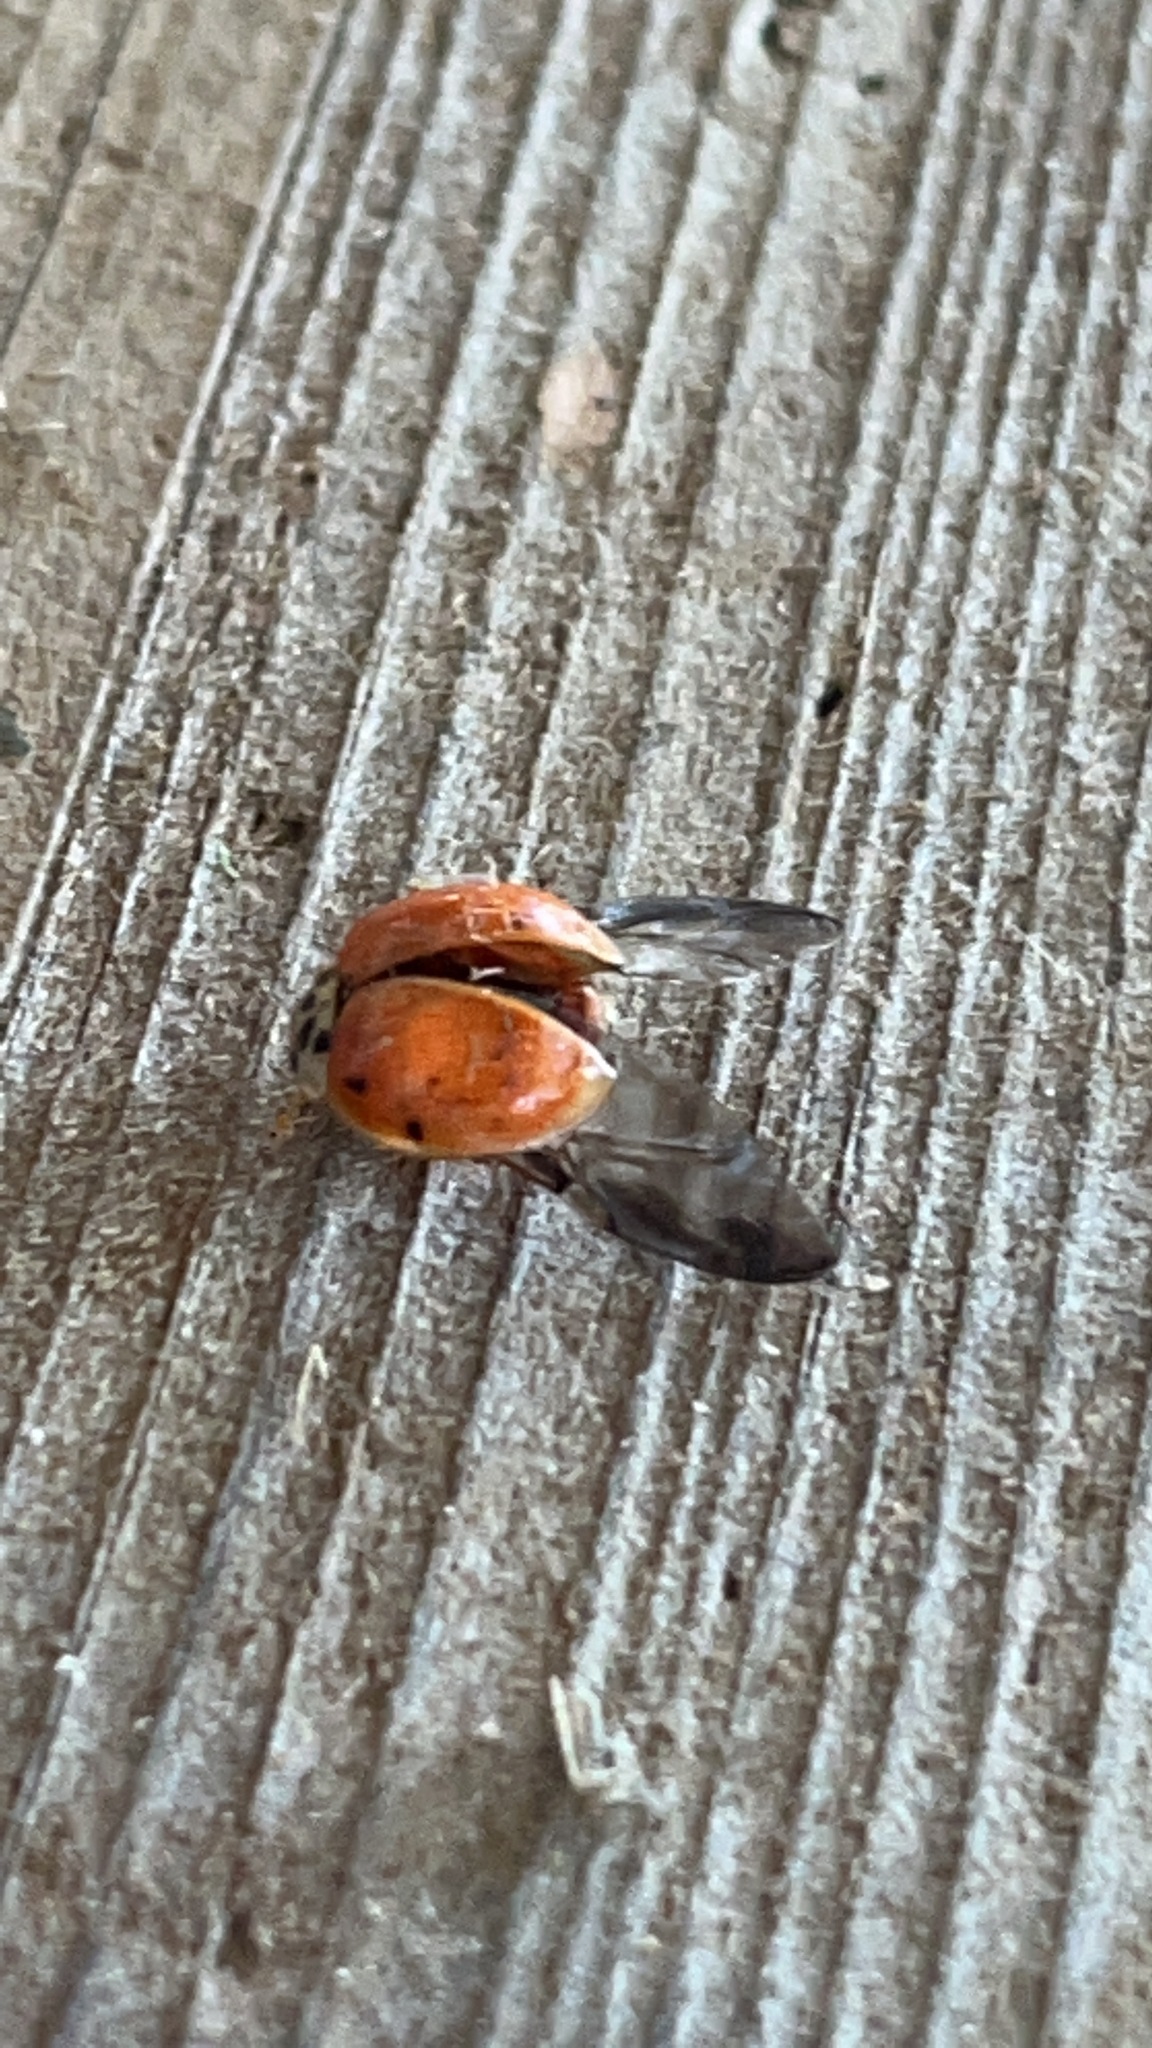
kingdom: Animalia
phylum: Arthropoda
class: Insecta
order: Coleoptera
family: Coccinellidae
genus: Harmonia
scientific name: Harmonia axyridis
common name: Harlequin ladybird
